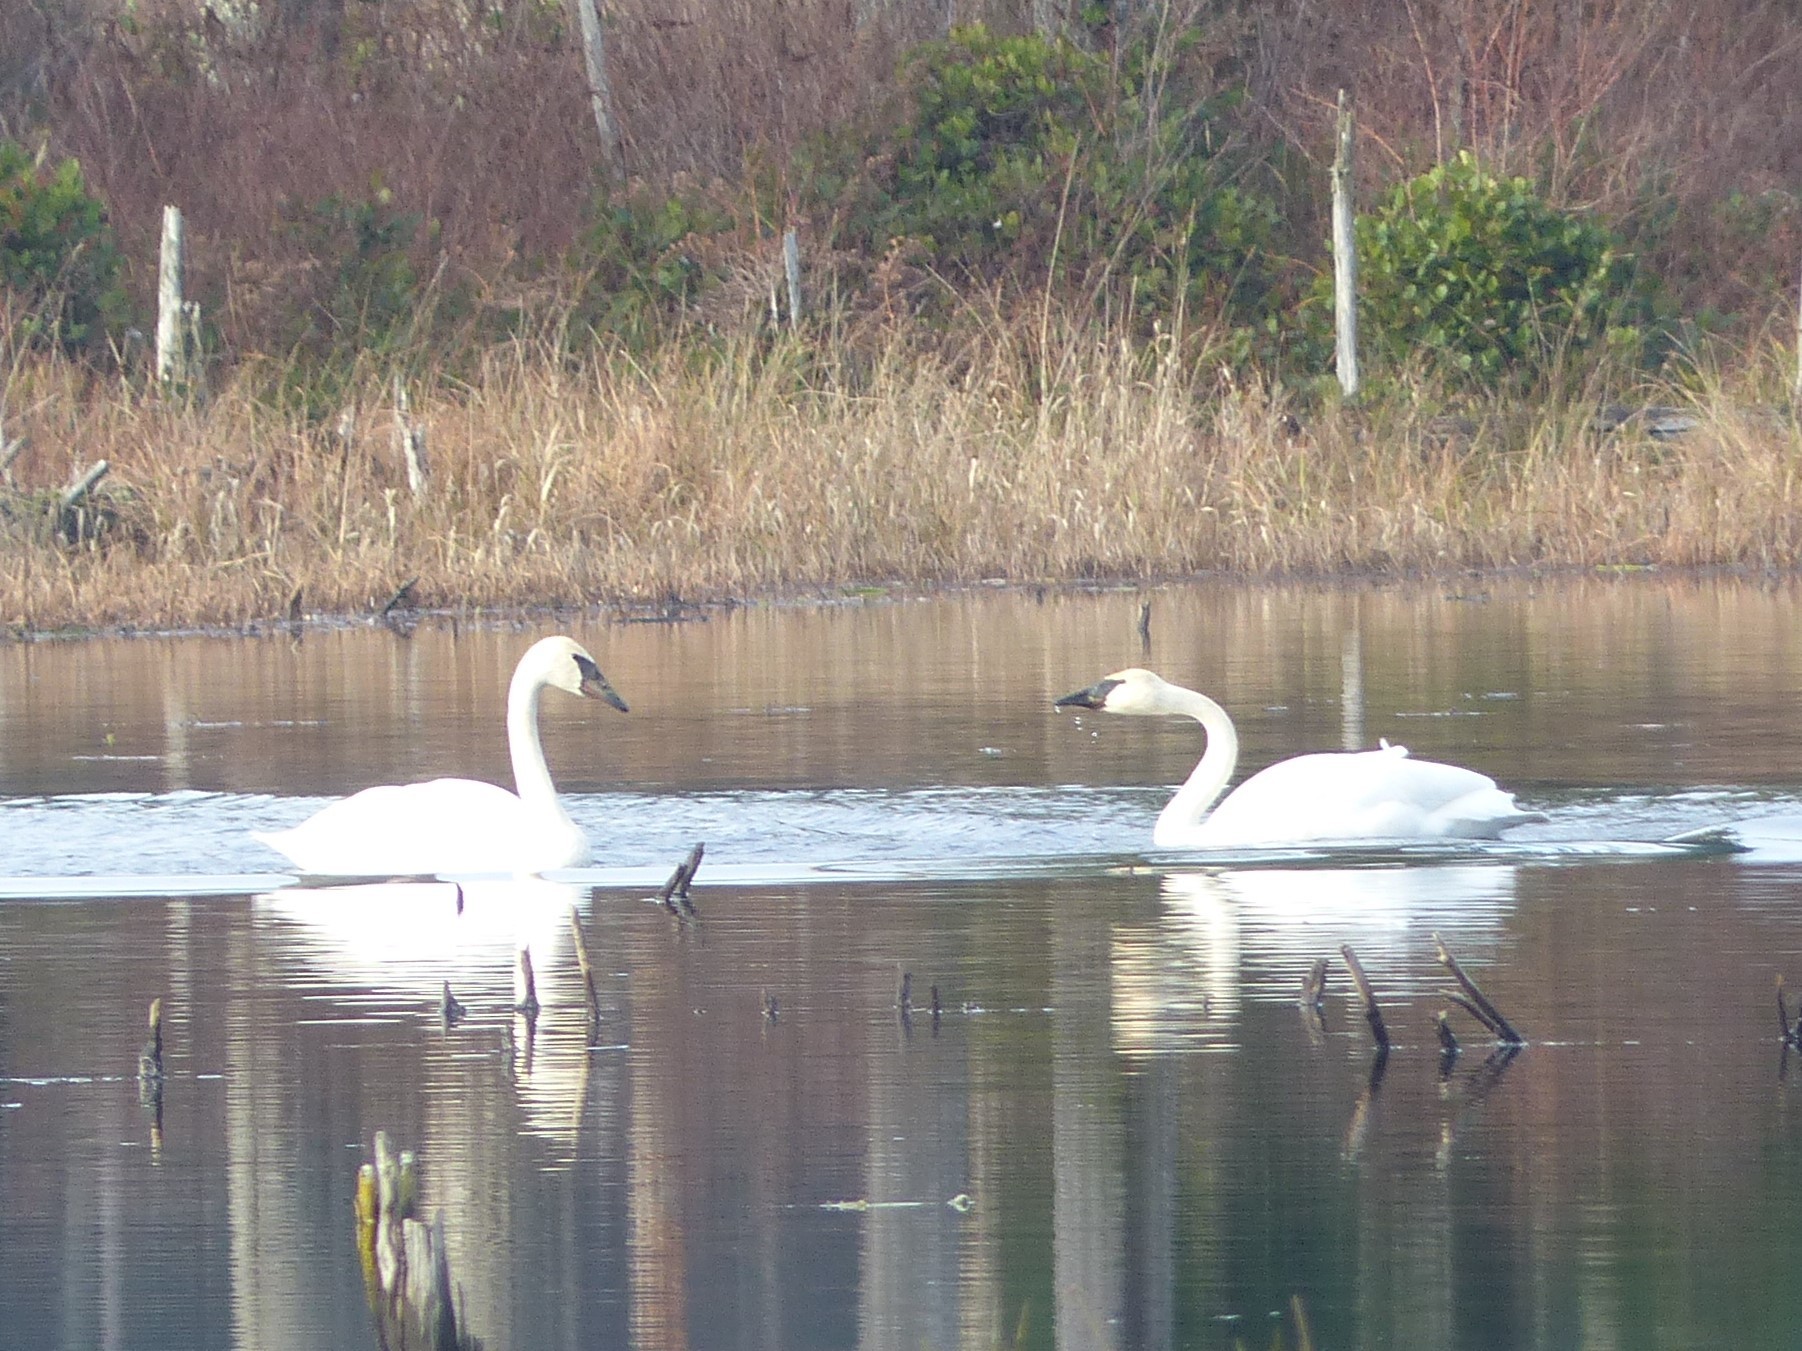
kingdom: Animalia
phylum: Chordata
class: Aves
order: Anseriformes
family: Anatidae
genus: Cygnus
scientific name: Cygnus buccinator
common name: Trumpeter swan
